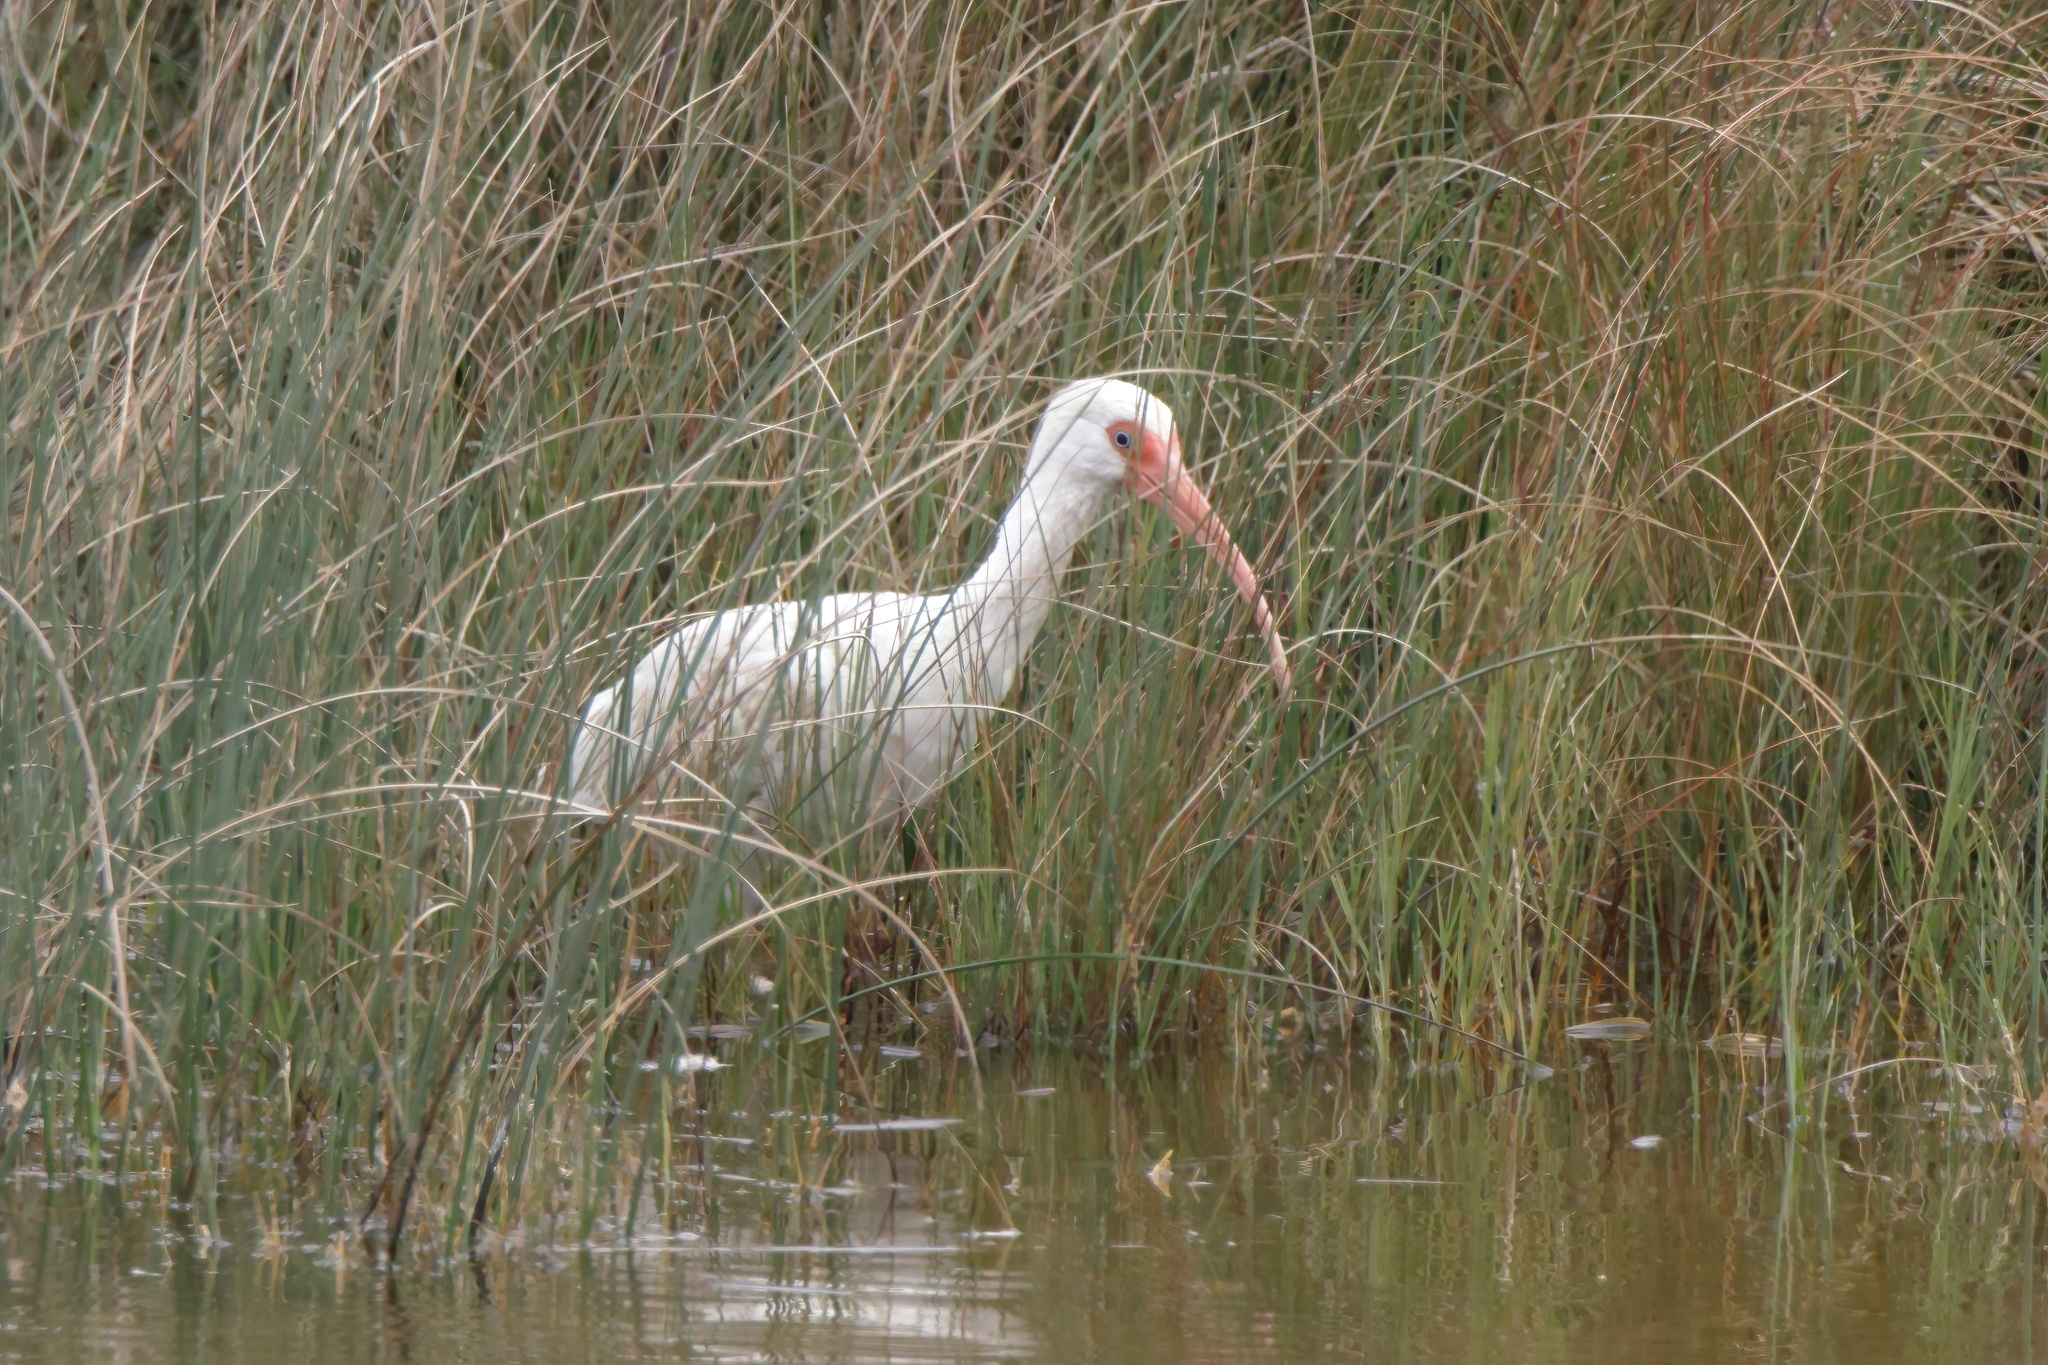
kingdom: Animalia
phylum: Chordata
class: Aves
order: Pelecaniformes
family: Threskiornithidae
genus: Eudocimus
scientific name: Eudocimus albus
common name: White ibis
